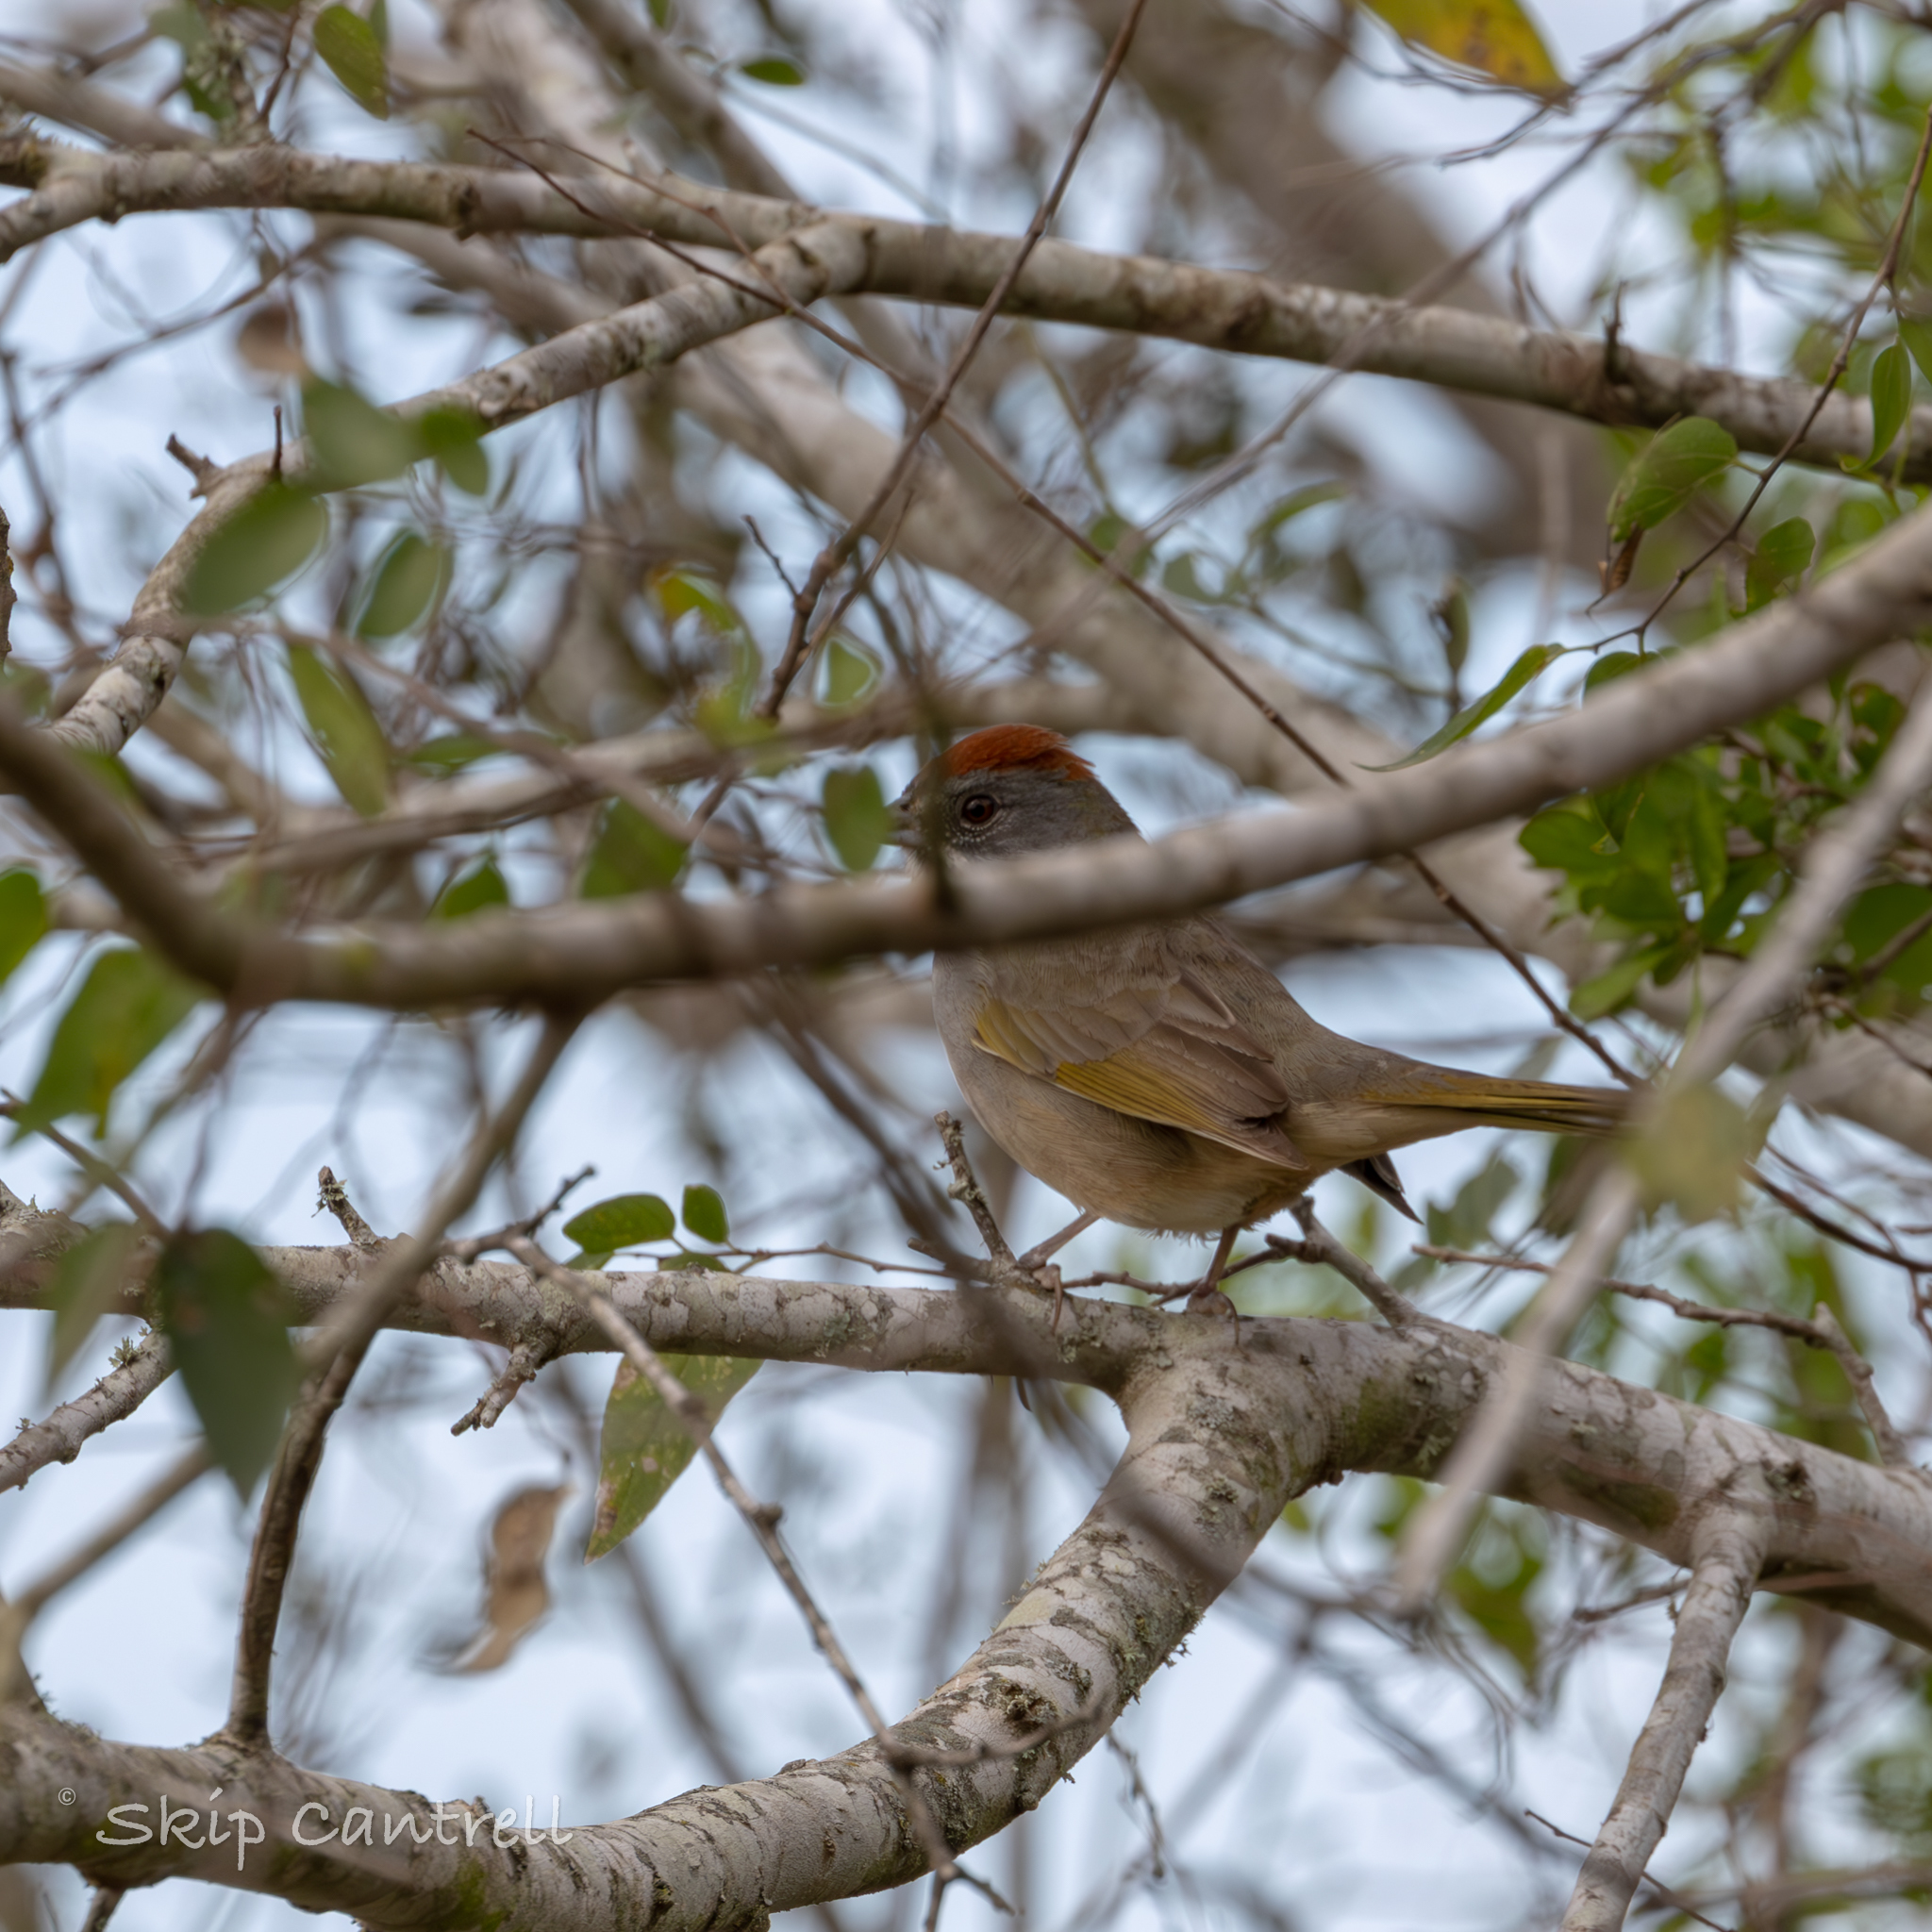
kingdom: Animalia
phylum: Chordata
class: Aves
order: Passeriformes
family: Passerellidae
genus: Pipilo
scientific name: Pipilo chlorurus
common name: Green-tailed towhee
